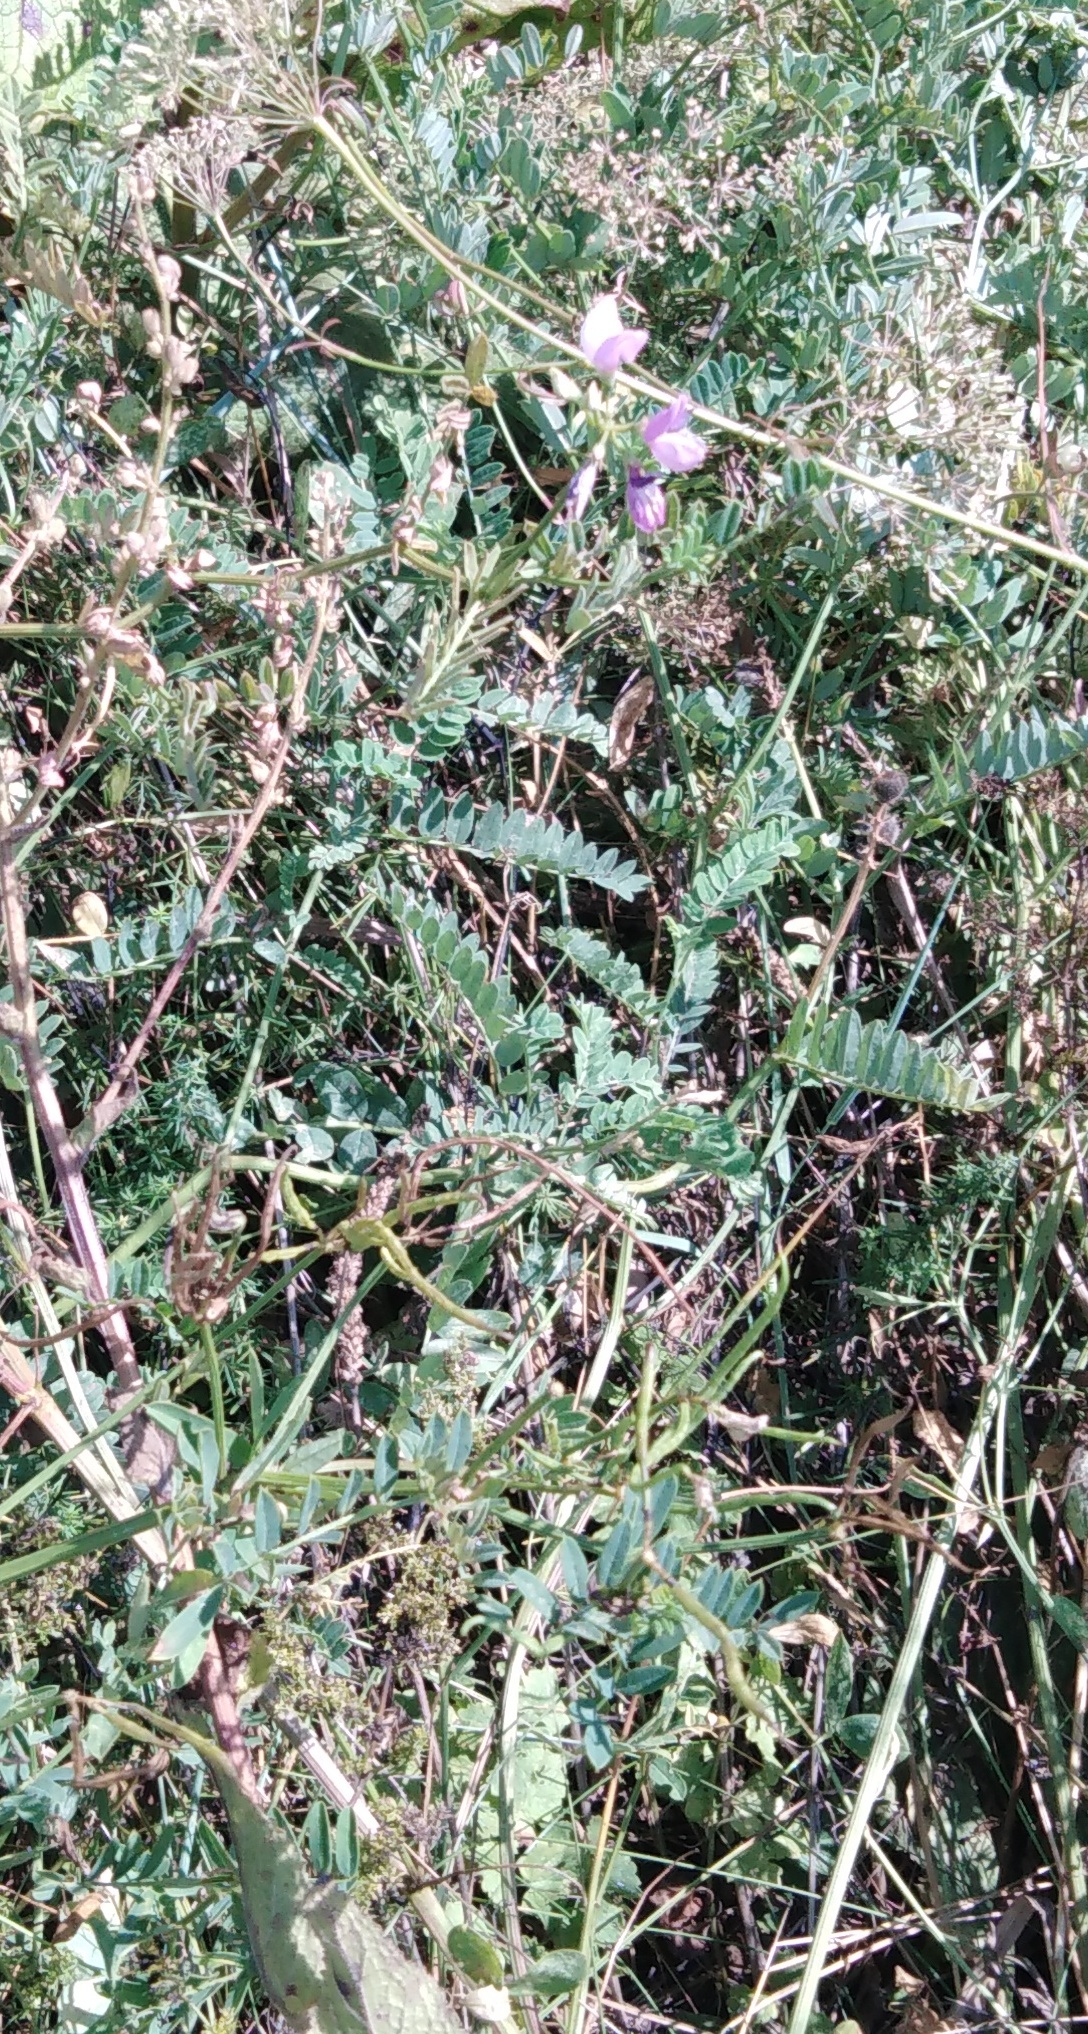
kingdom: Plantae
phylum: Tracheophyta
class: Magnoliopsida
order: Fabales
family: Fabaceae
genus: Coronilla
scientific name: Coronilla varia
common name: Crownvetch
